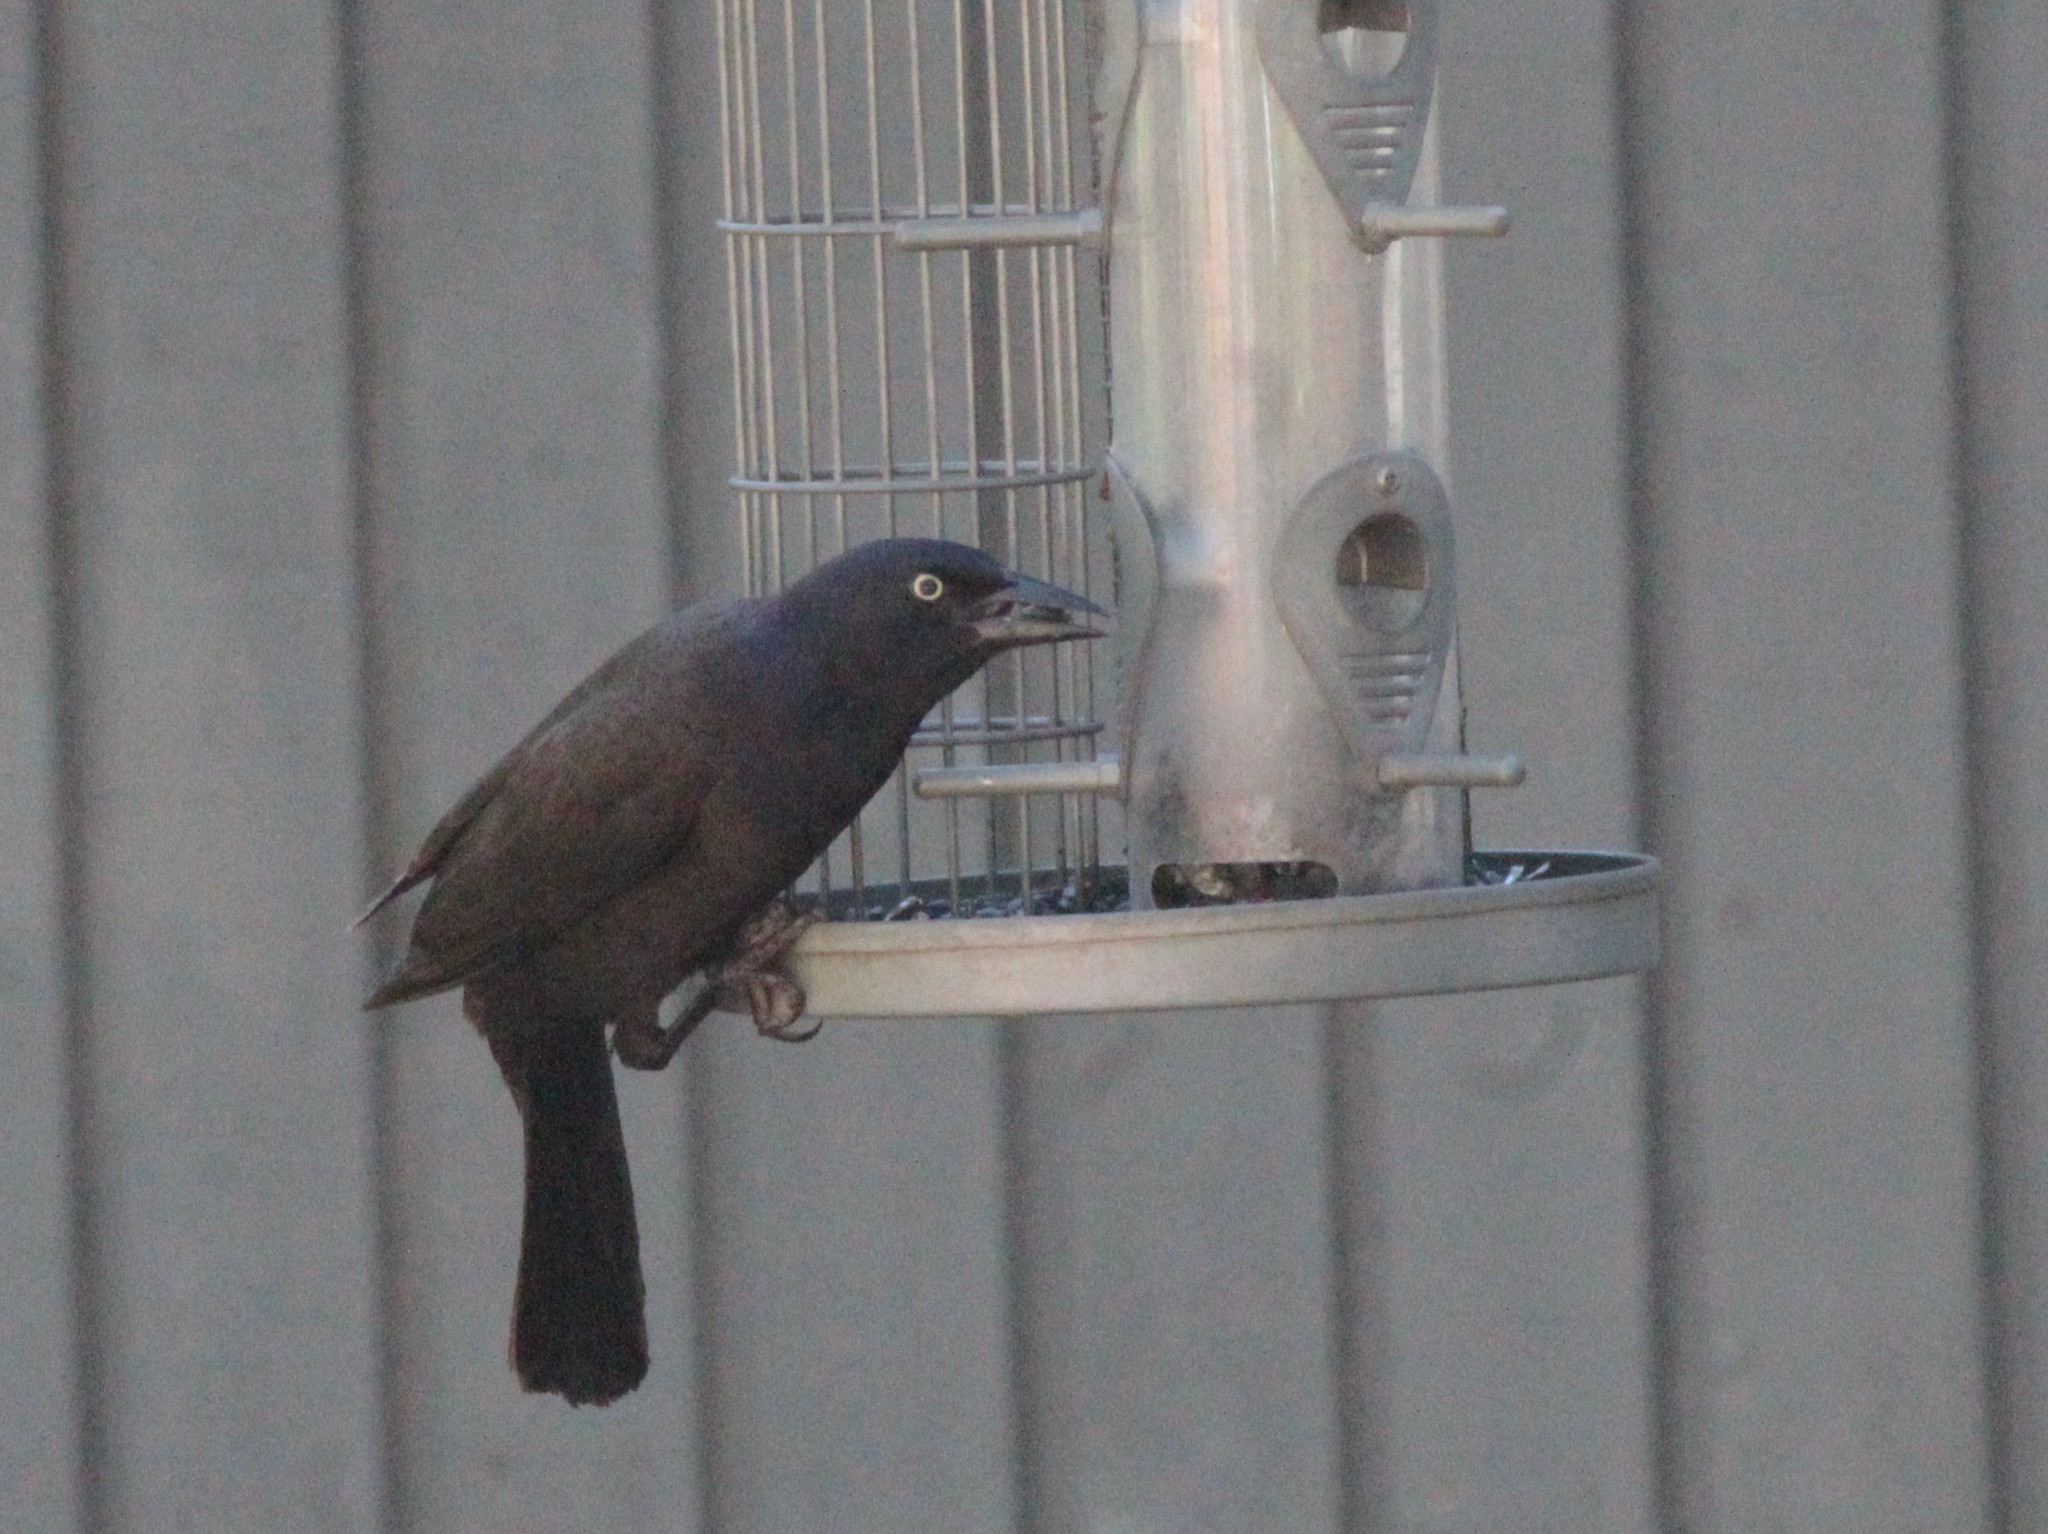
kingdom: Animalia
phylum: Chordata
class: Aves
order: Passeriformes
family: Icteridae
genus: Quiscalus
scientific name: Quiscalus quiscula
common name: Common grackle
